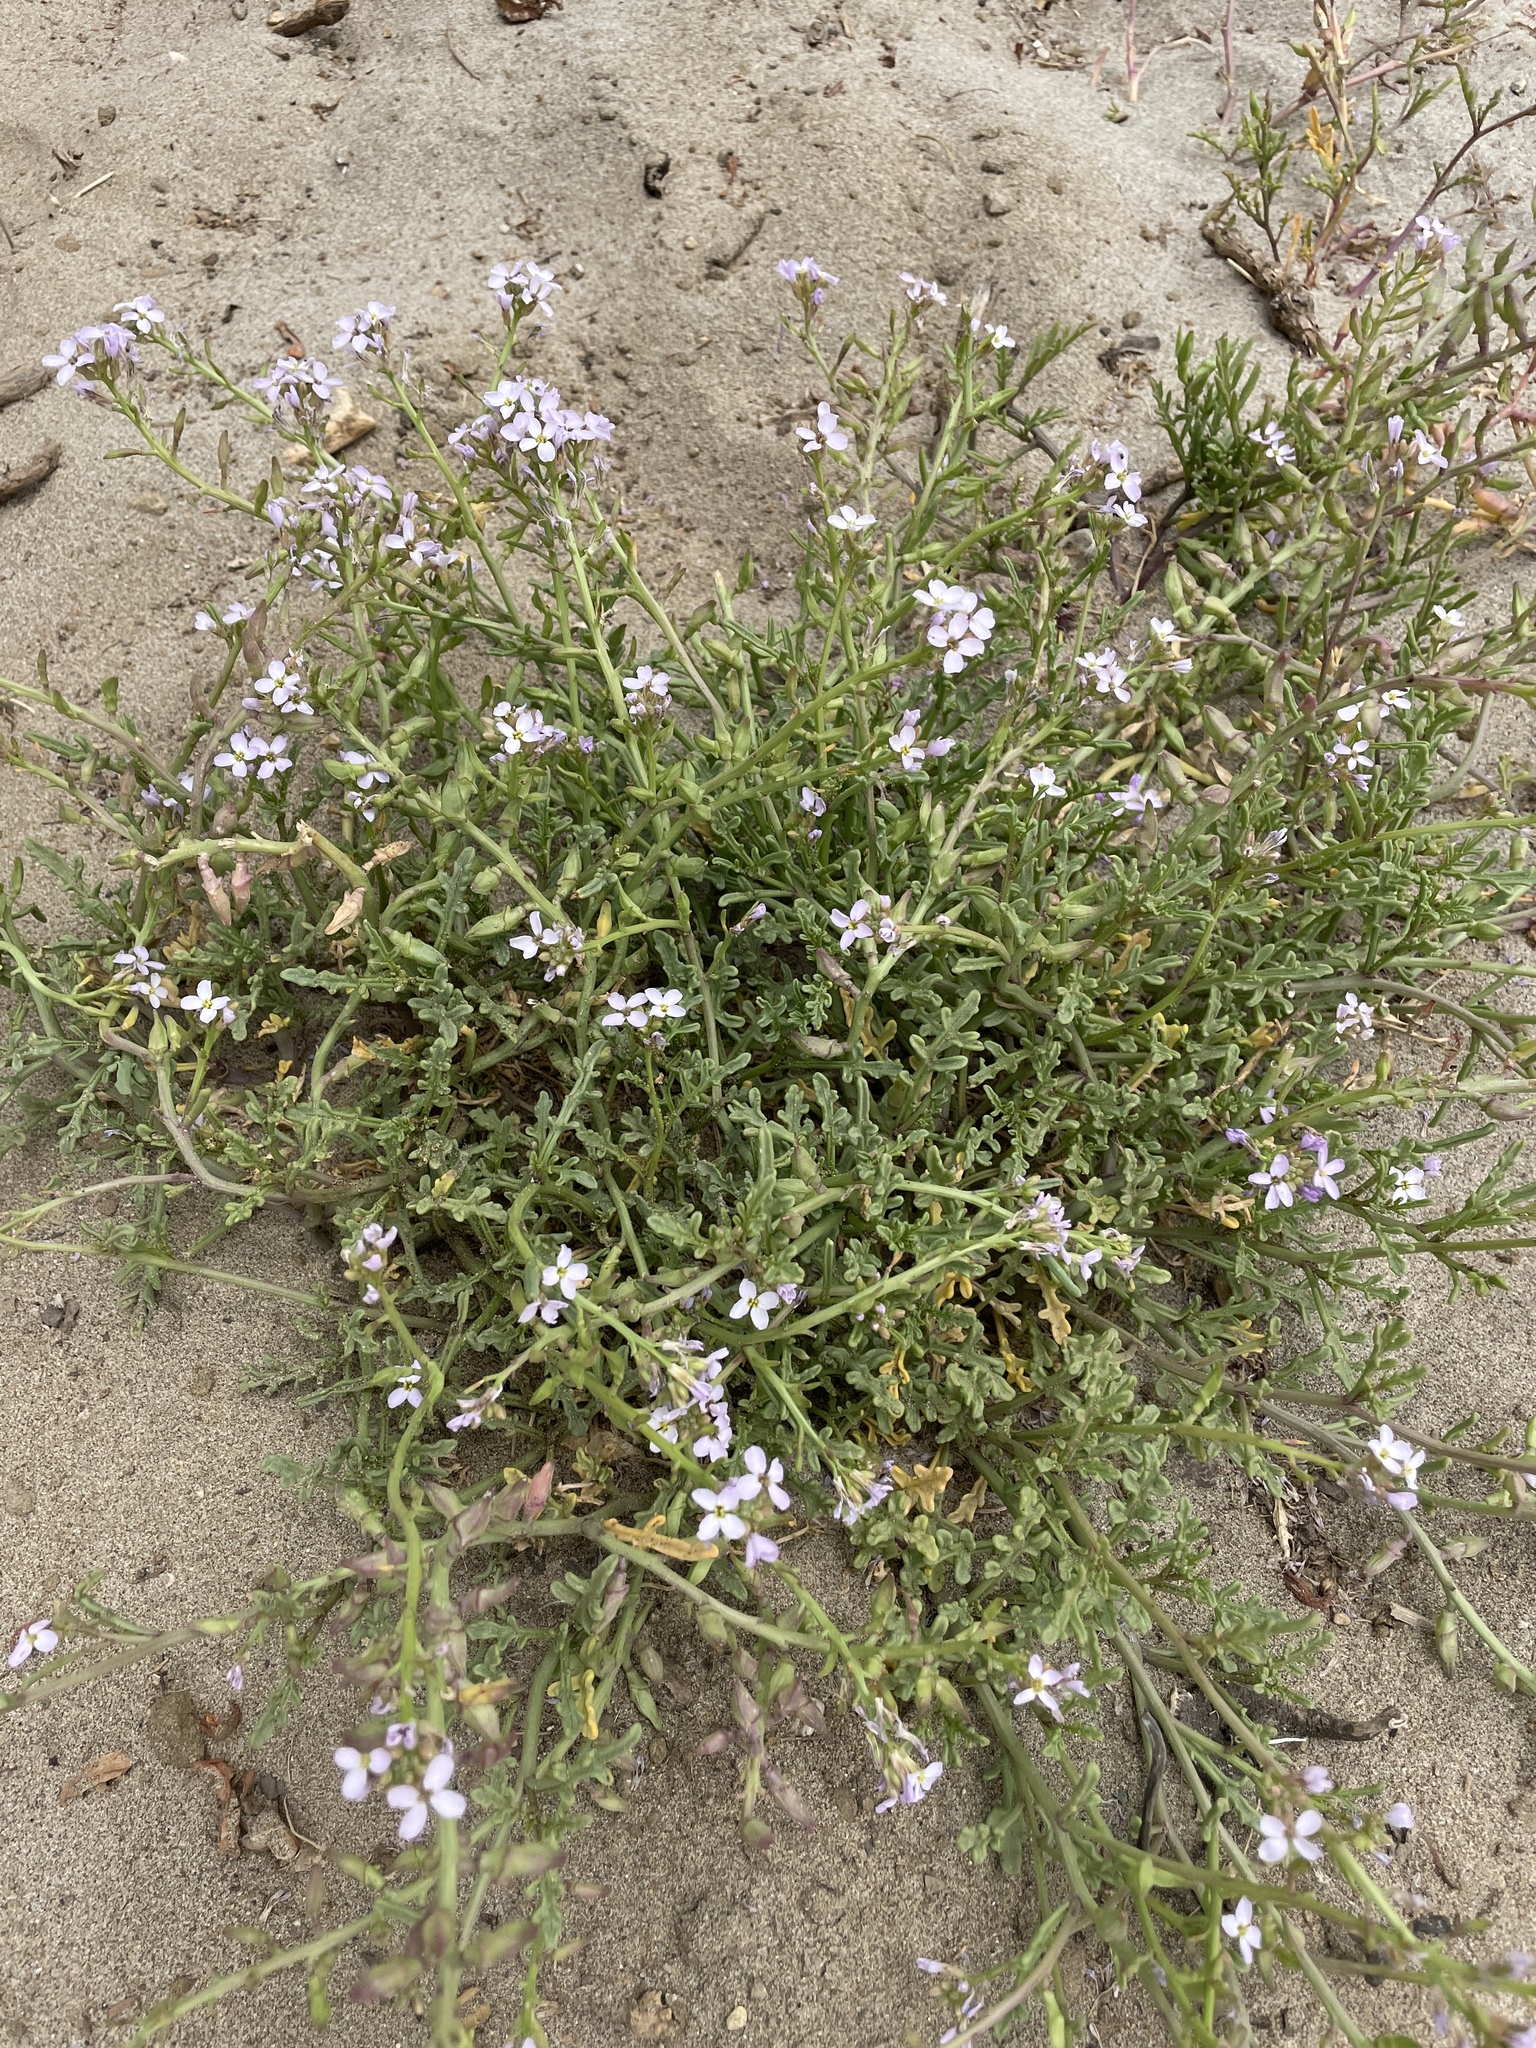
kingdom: Plantae
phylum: Tracheophyta
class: Magnoliopsida
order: Brassicales
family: Brassicaceae
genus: Cakile
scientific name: Cakile maritima
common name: Sea rocket
